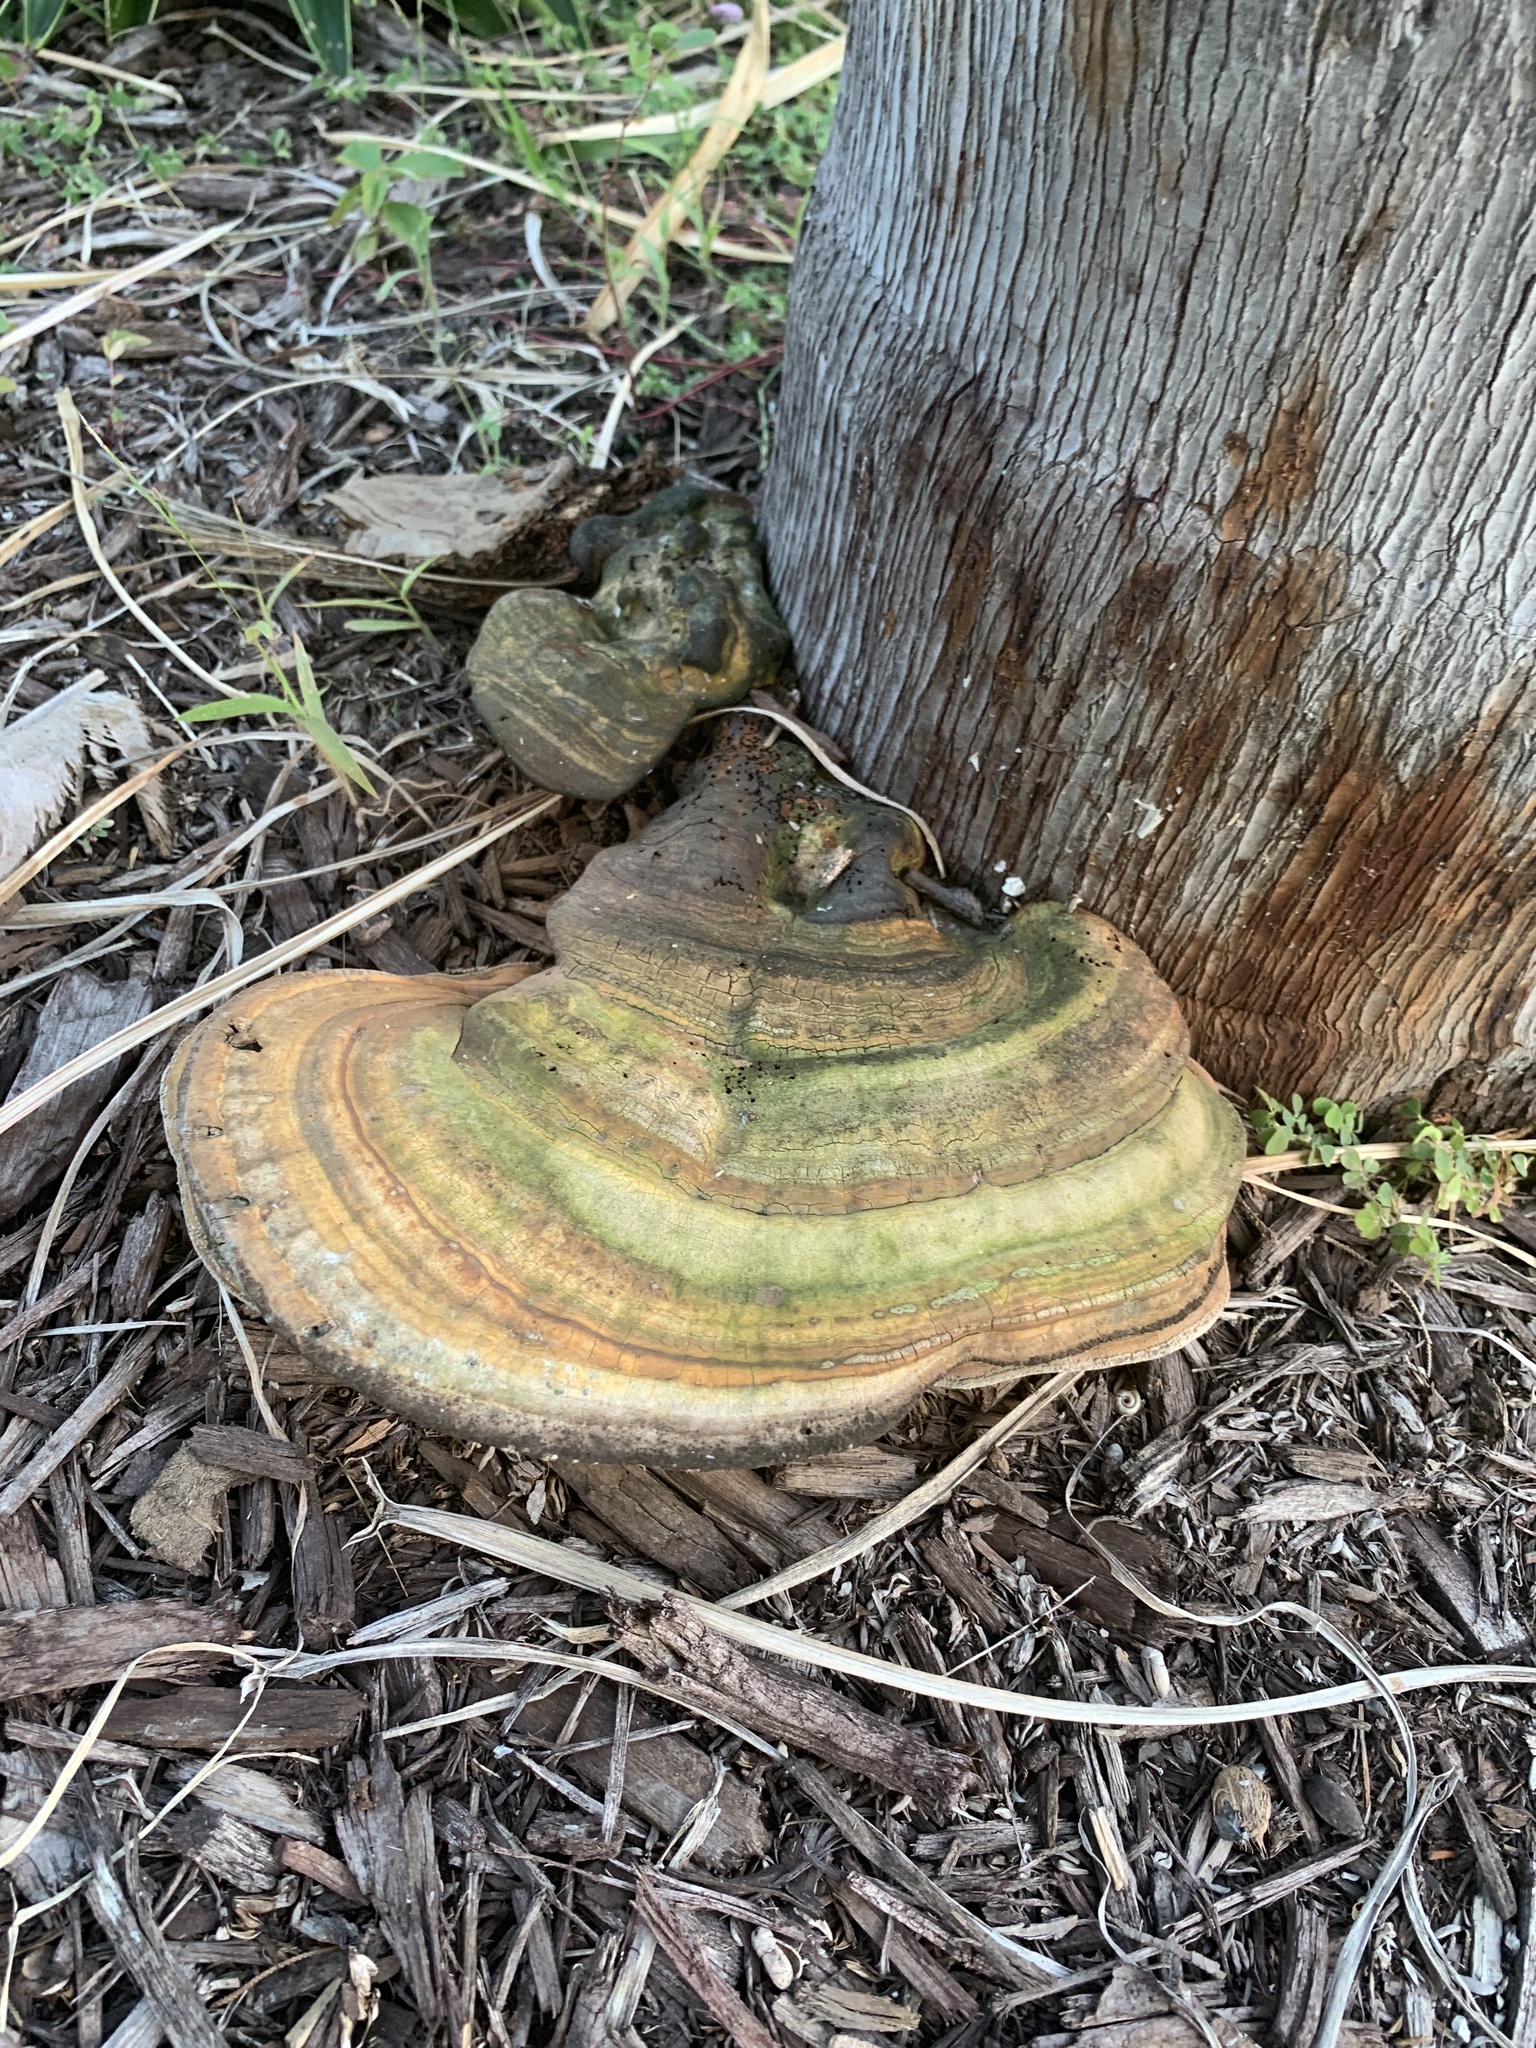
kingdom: Fungi
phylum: Basidiomycota
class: Agaricomycetes
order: Polyporales
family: Polyporaceae
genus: Ganoderma
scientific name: Ganoderma zonatum
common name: Ganoderma butt rot
